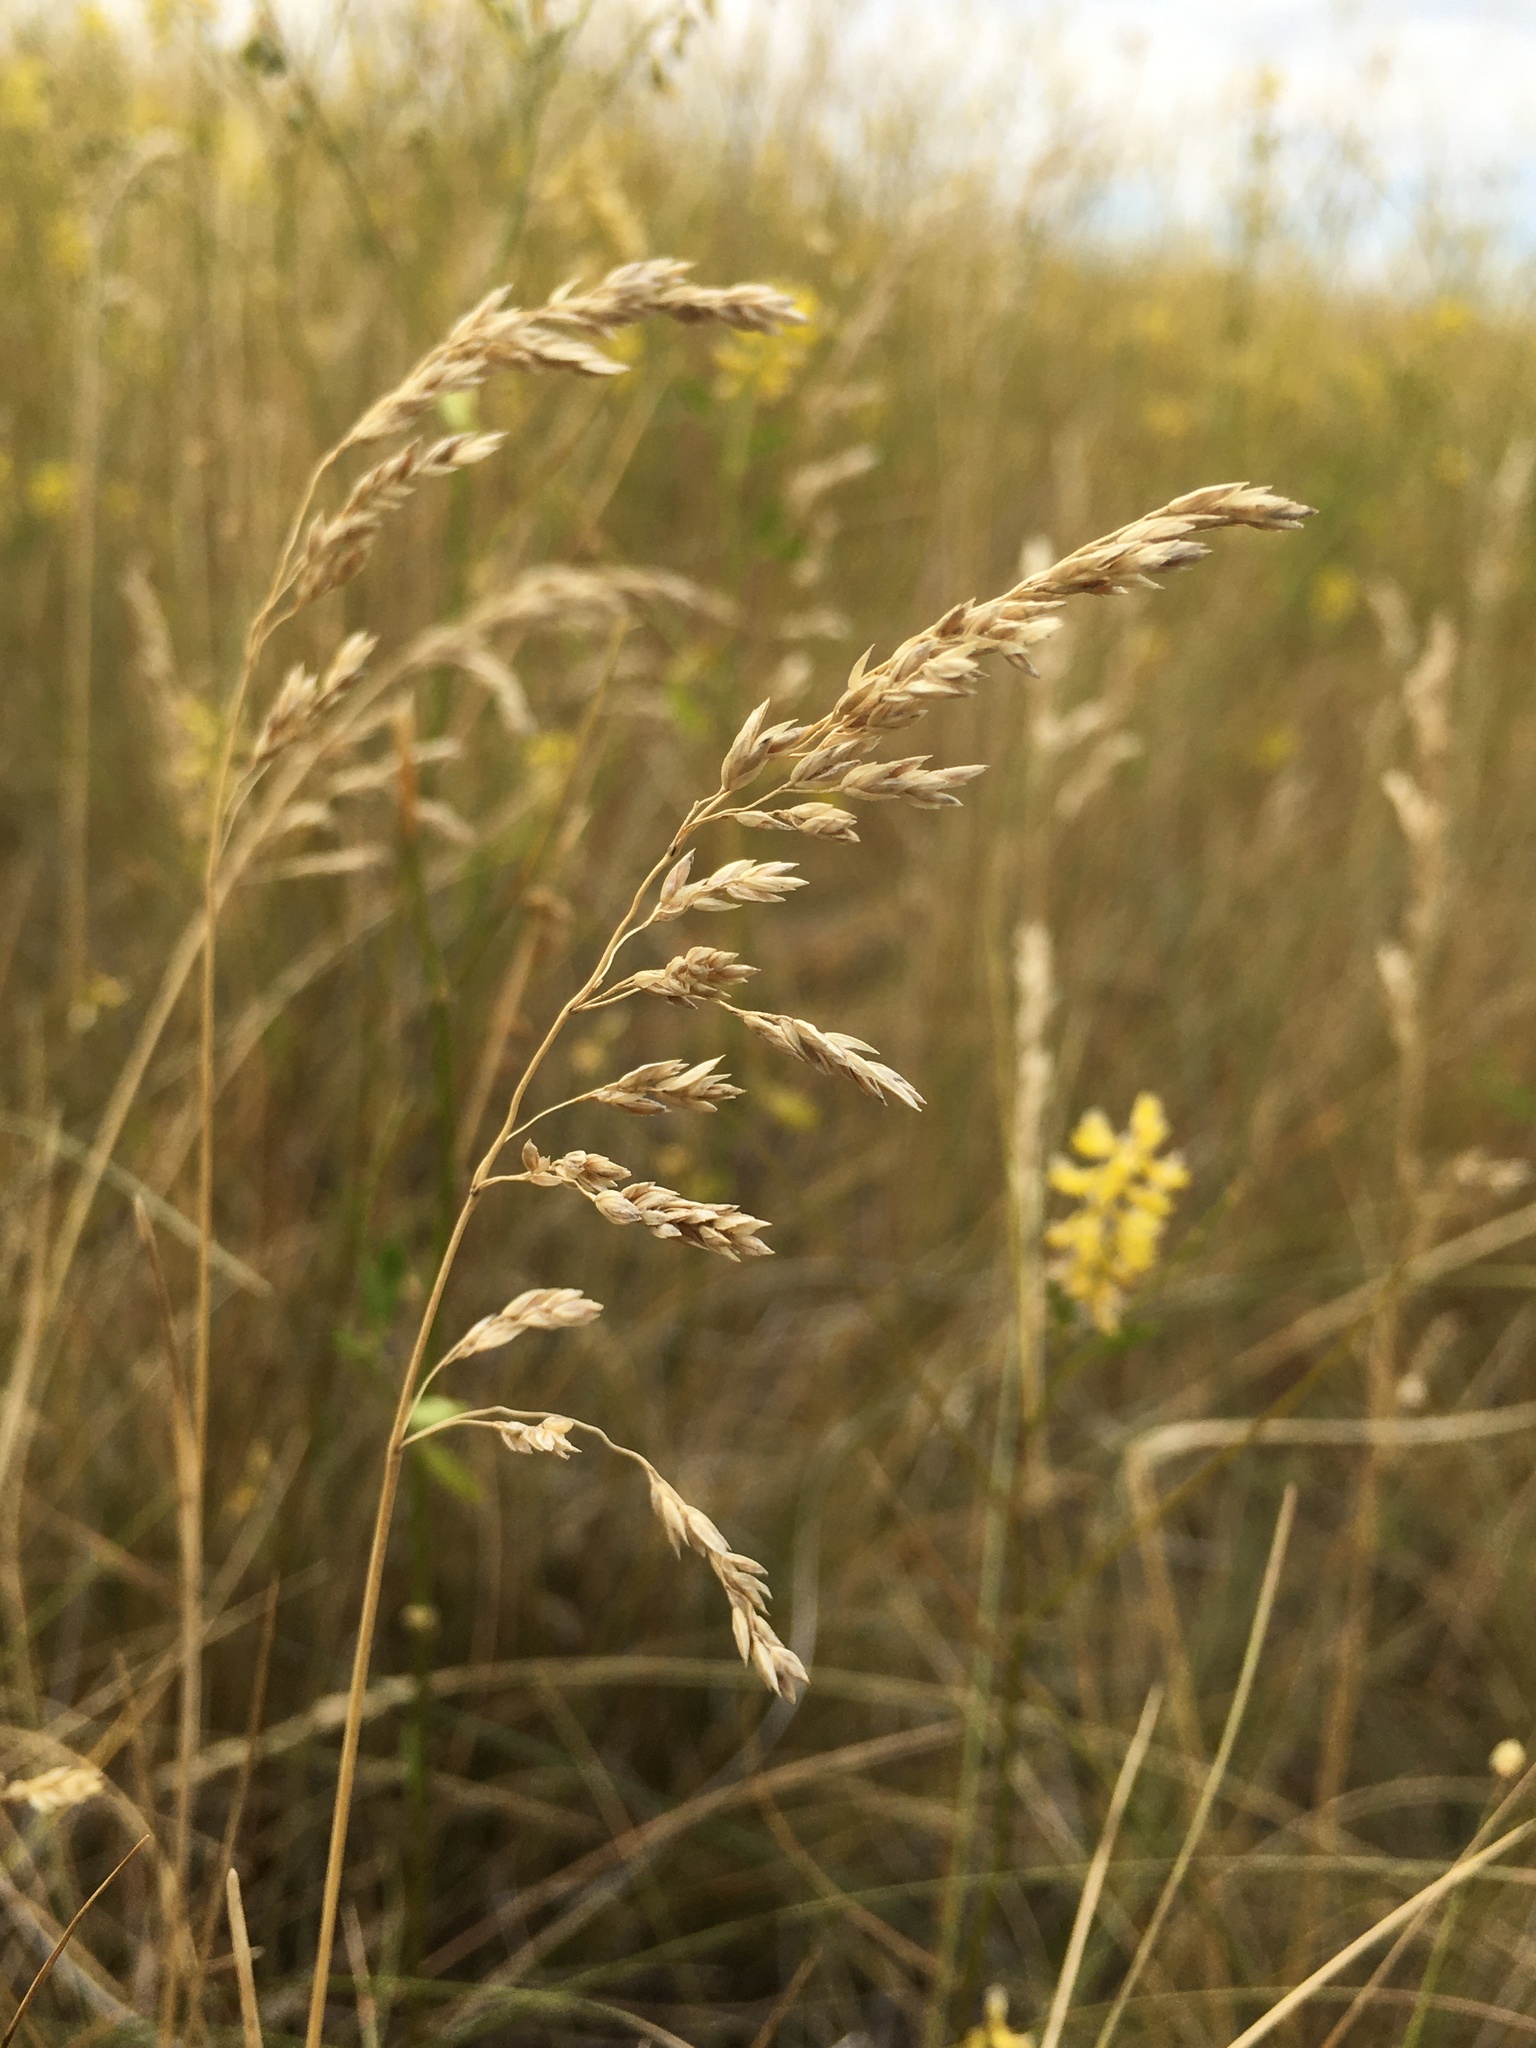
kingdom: Plantae
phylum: Tracheophyta
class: Liliopsida
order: Poales
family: Poaceae
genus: Poa
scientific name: Poa pratensis
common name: Kentucky bluegrass
